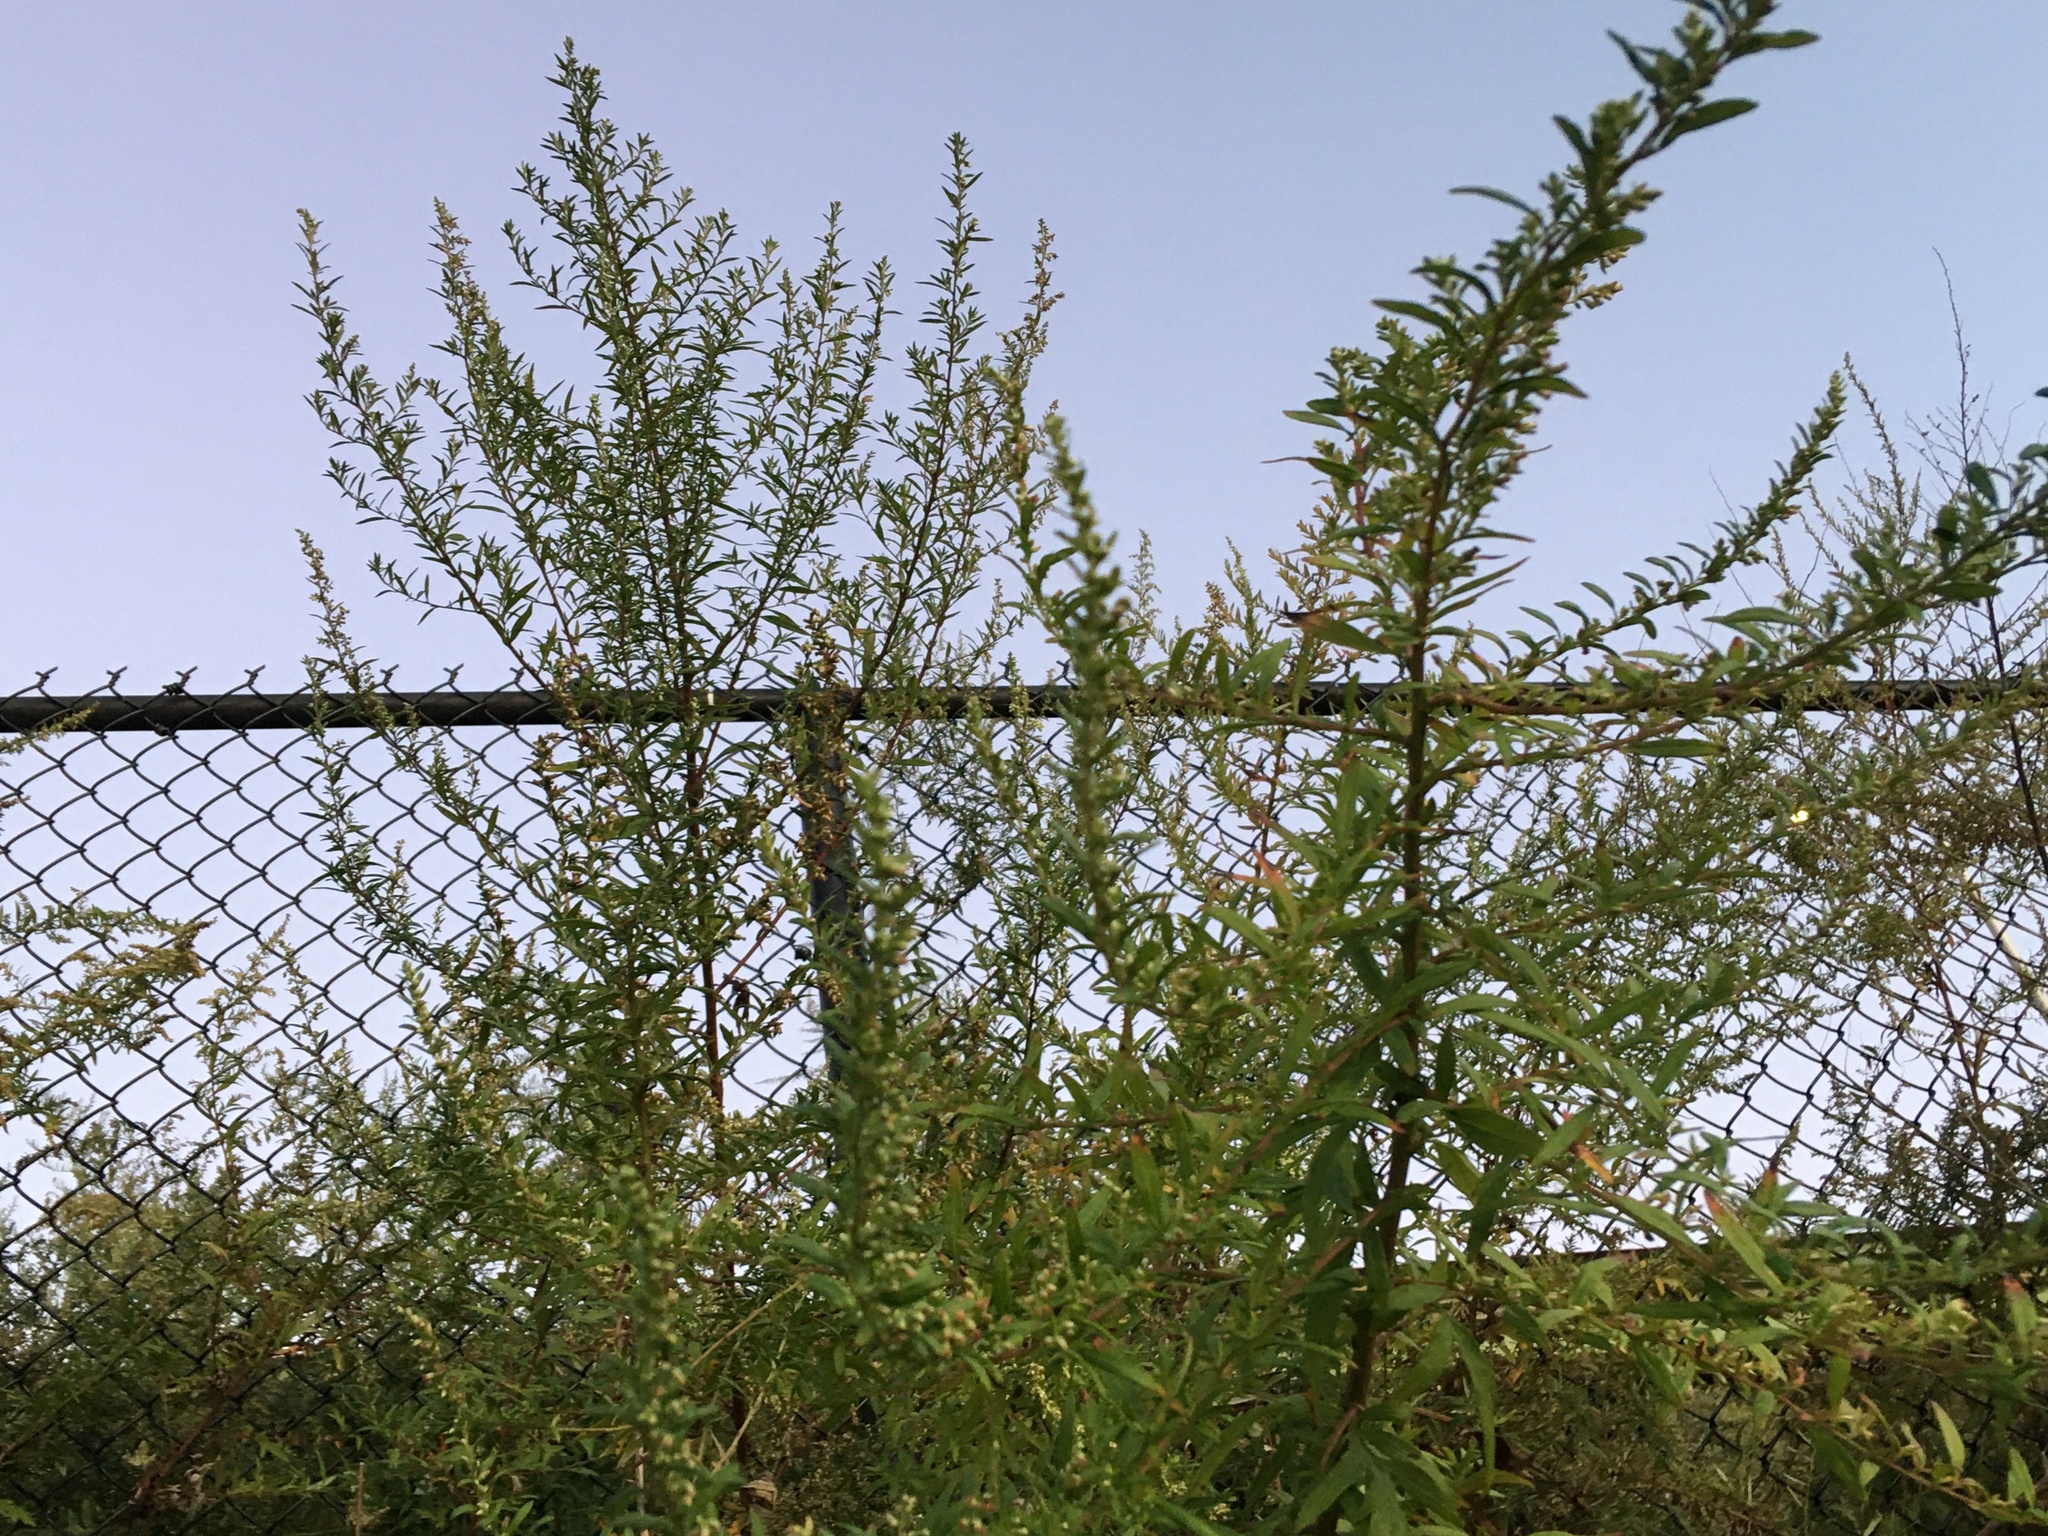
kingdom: Plantae
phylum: Tracheophyta
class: Magnoliopsida
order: Asterales
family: Asteraceae
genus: Artemisia
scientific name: Artemisia vulgaris
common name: Mugwort
